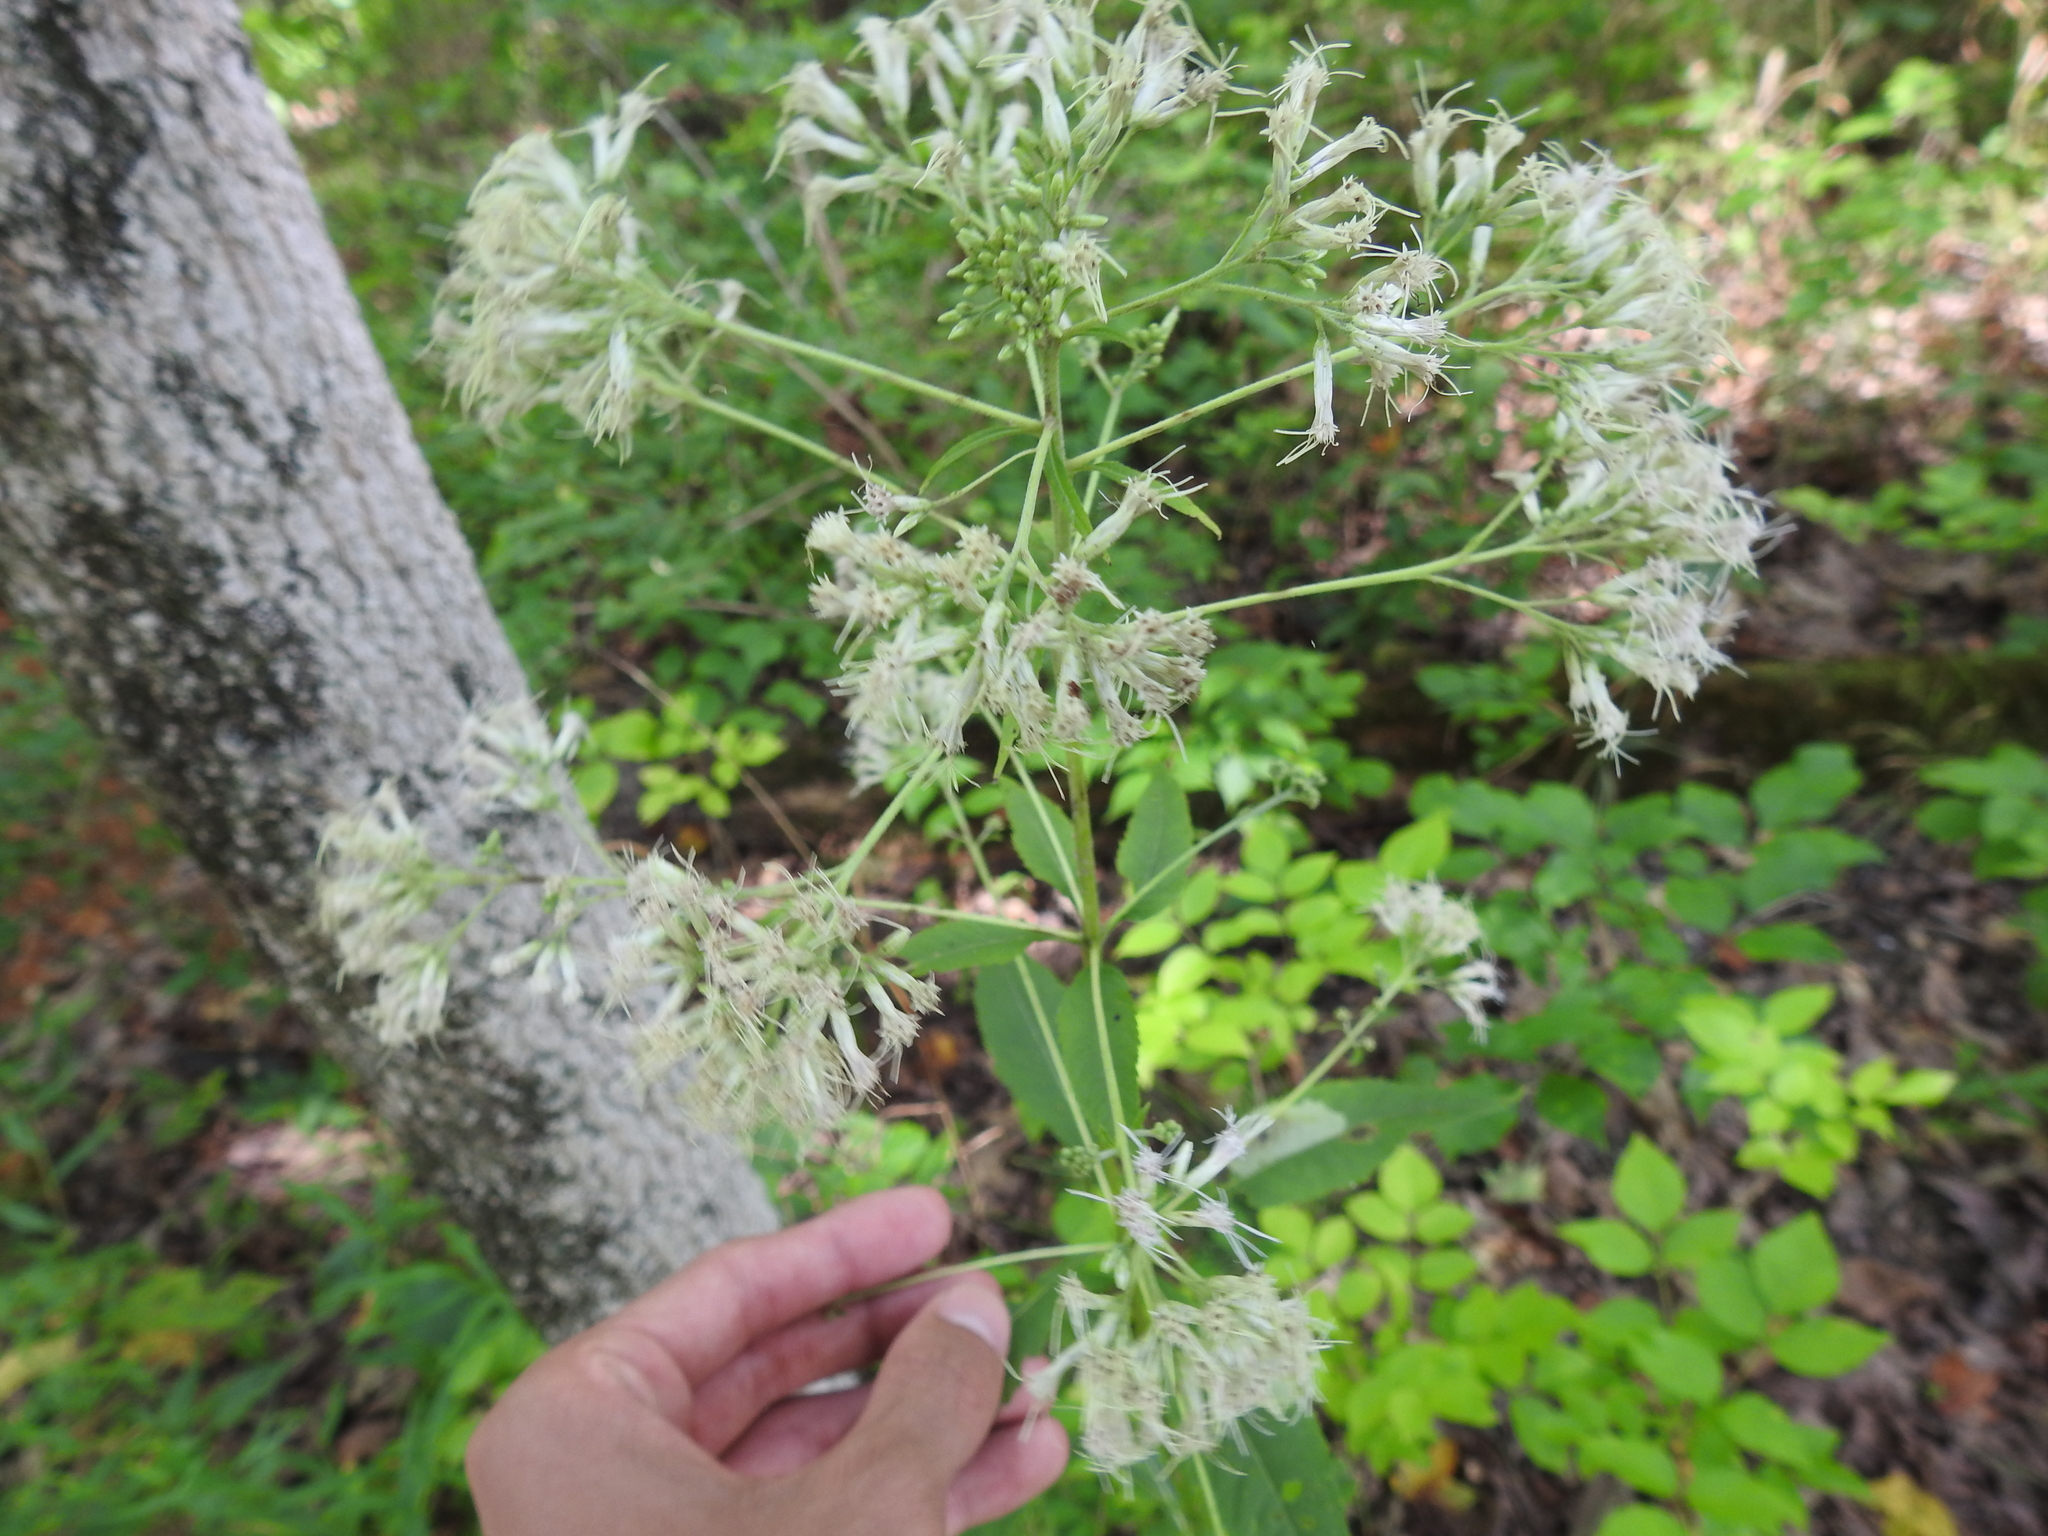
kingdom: Plantae
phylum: Tracheophyta
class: Magnoliopsida
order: Asterales
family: Asteraceae
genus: Eutrochium
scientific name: Eutrochium purpureum
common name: Gravelroot
